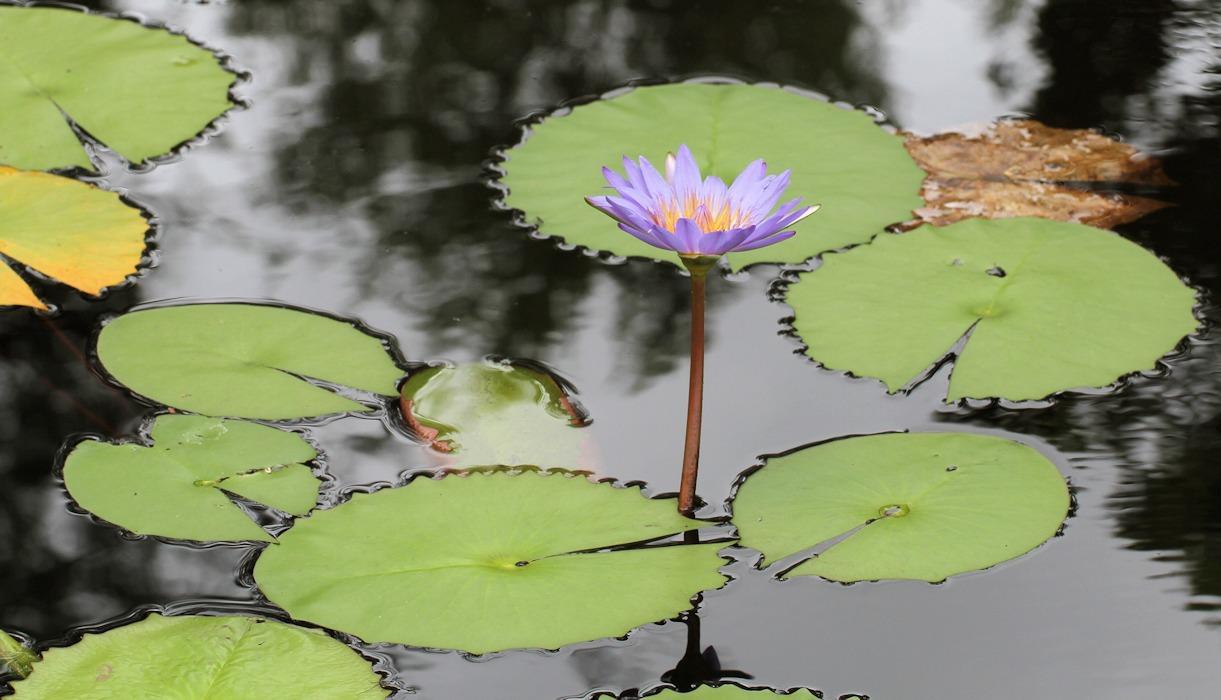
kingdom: Plantae
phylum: Tracheophyta
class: Magnoliopsida
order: Nymphaeales
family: Nymphaeaceae
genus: Nymphaea
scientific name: Nymphaea nouchali
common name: Blue lotus
